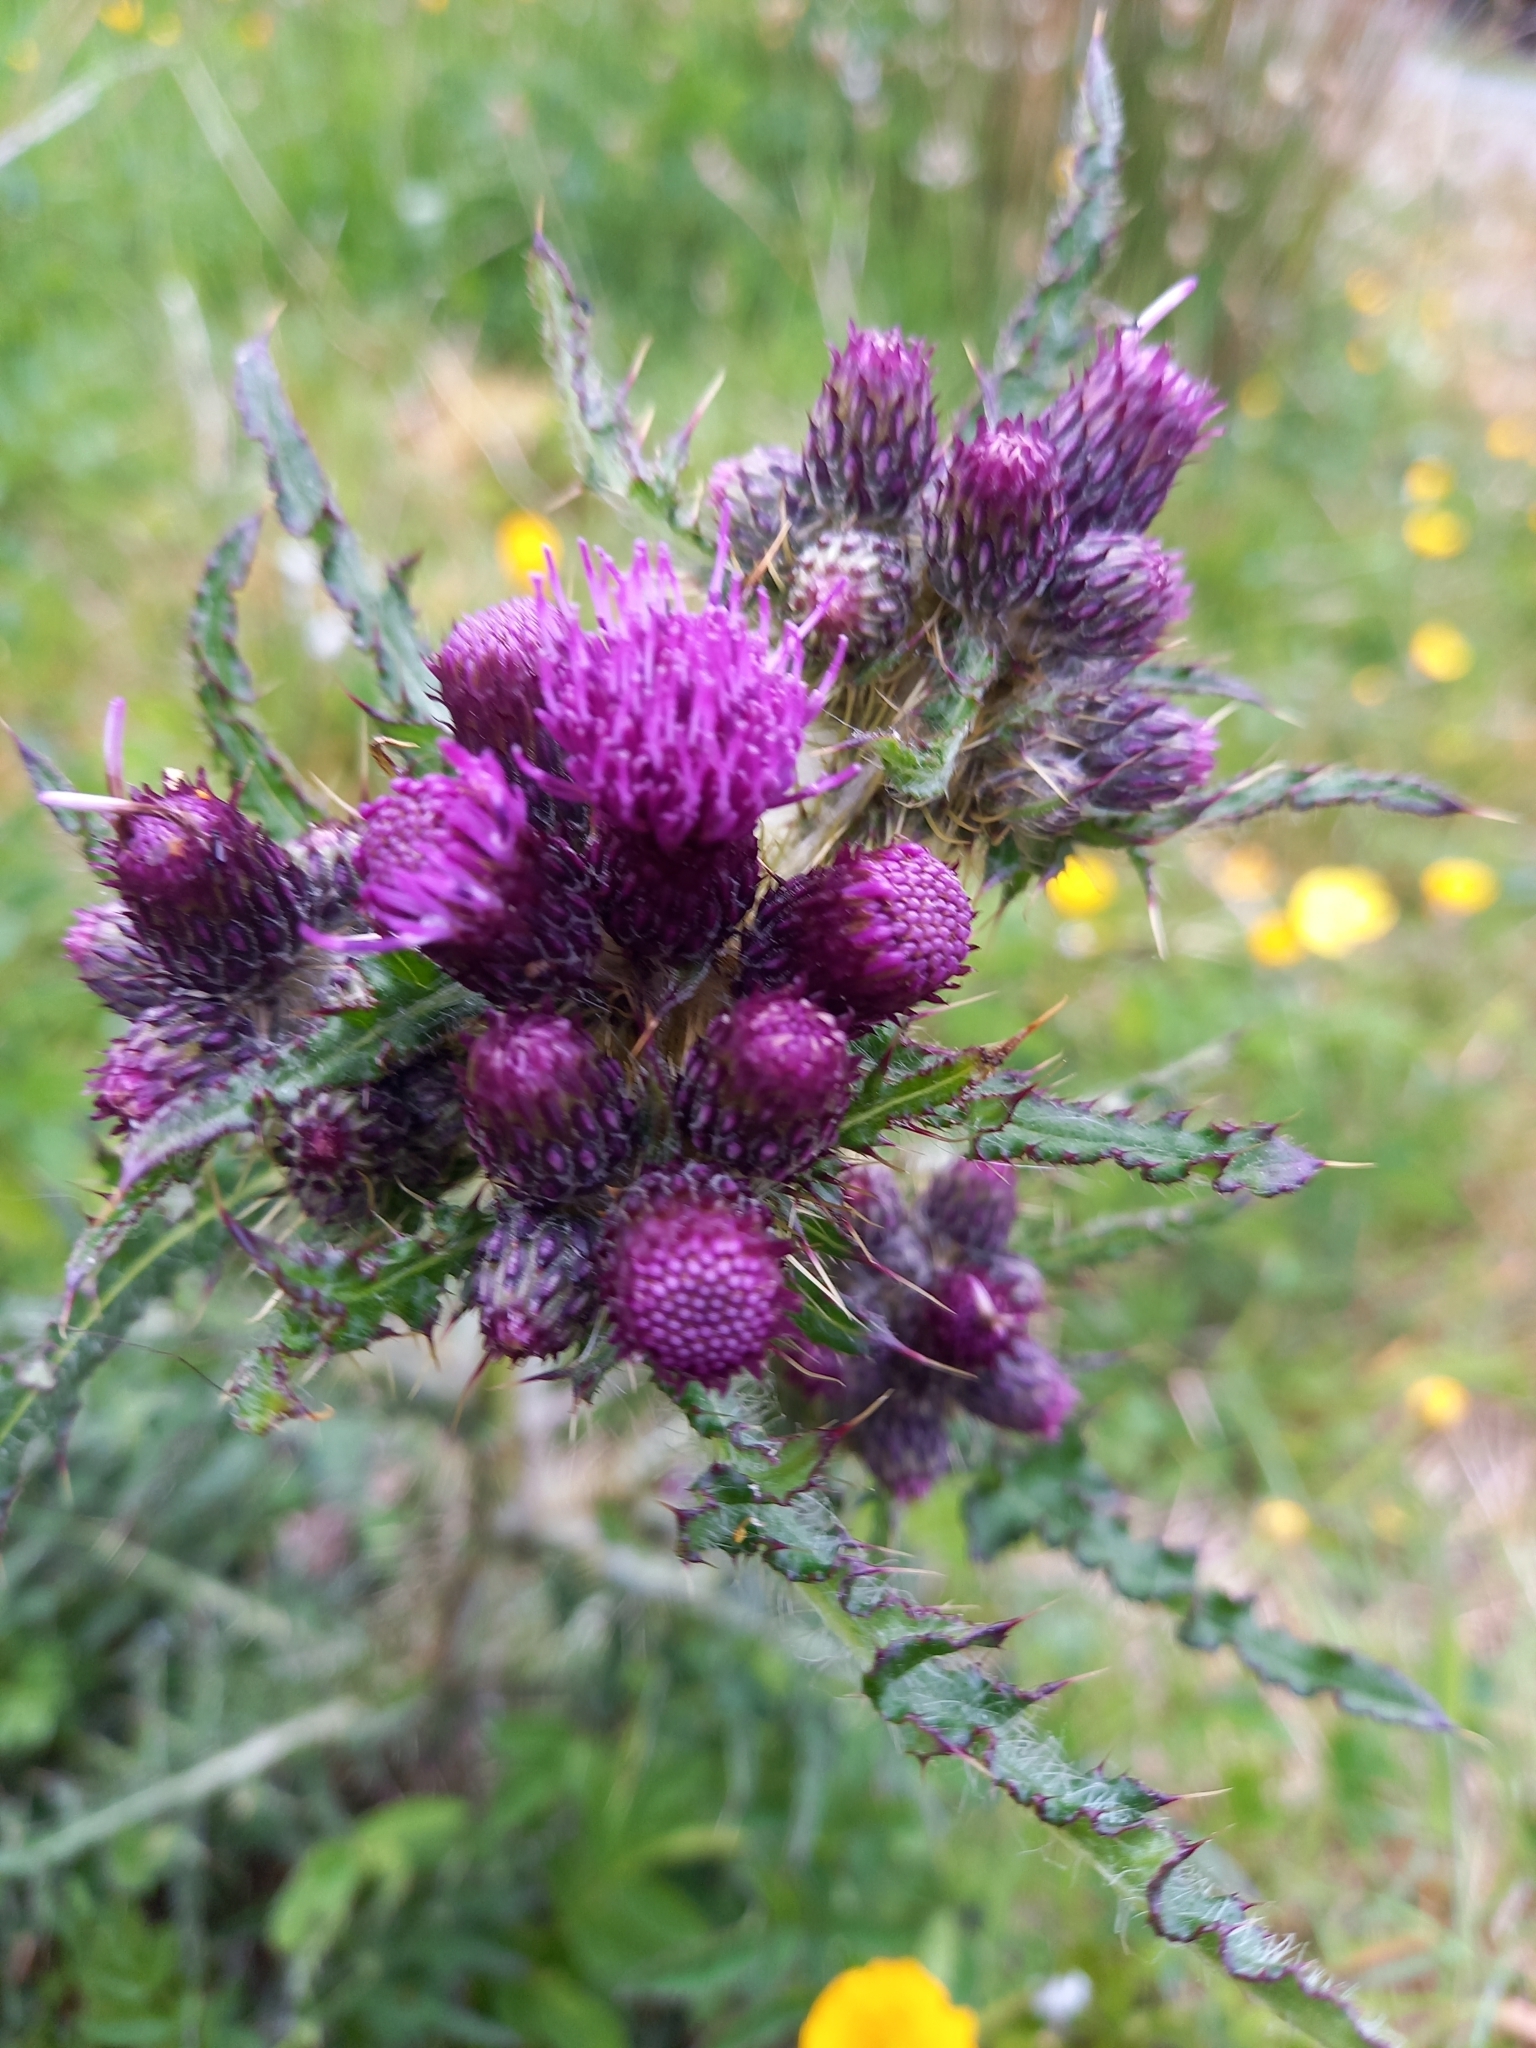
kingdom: Plantae
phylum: Tracheophyta
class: Magnoliopsida
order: Asterales
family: Asteraceae
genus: Cirsium
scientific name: Cirsium palustre
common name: Marsh thistle
